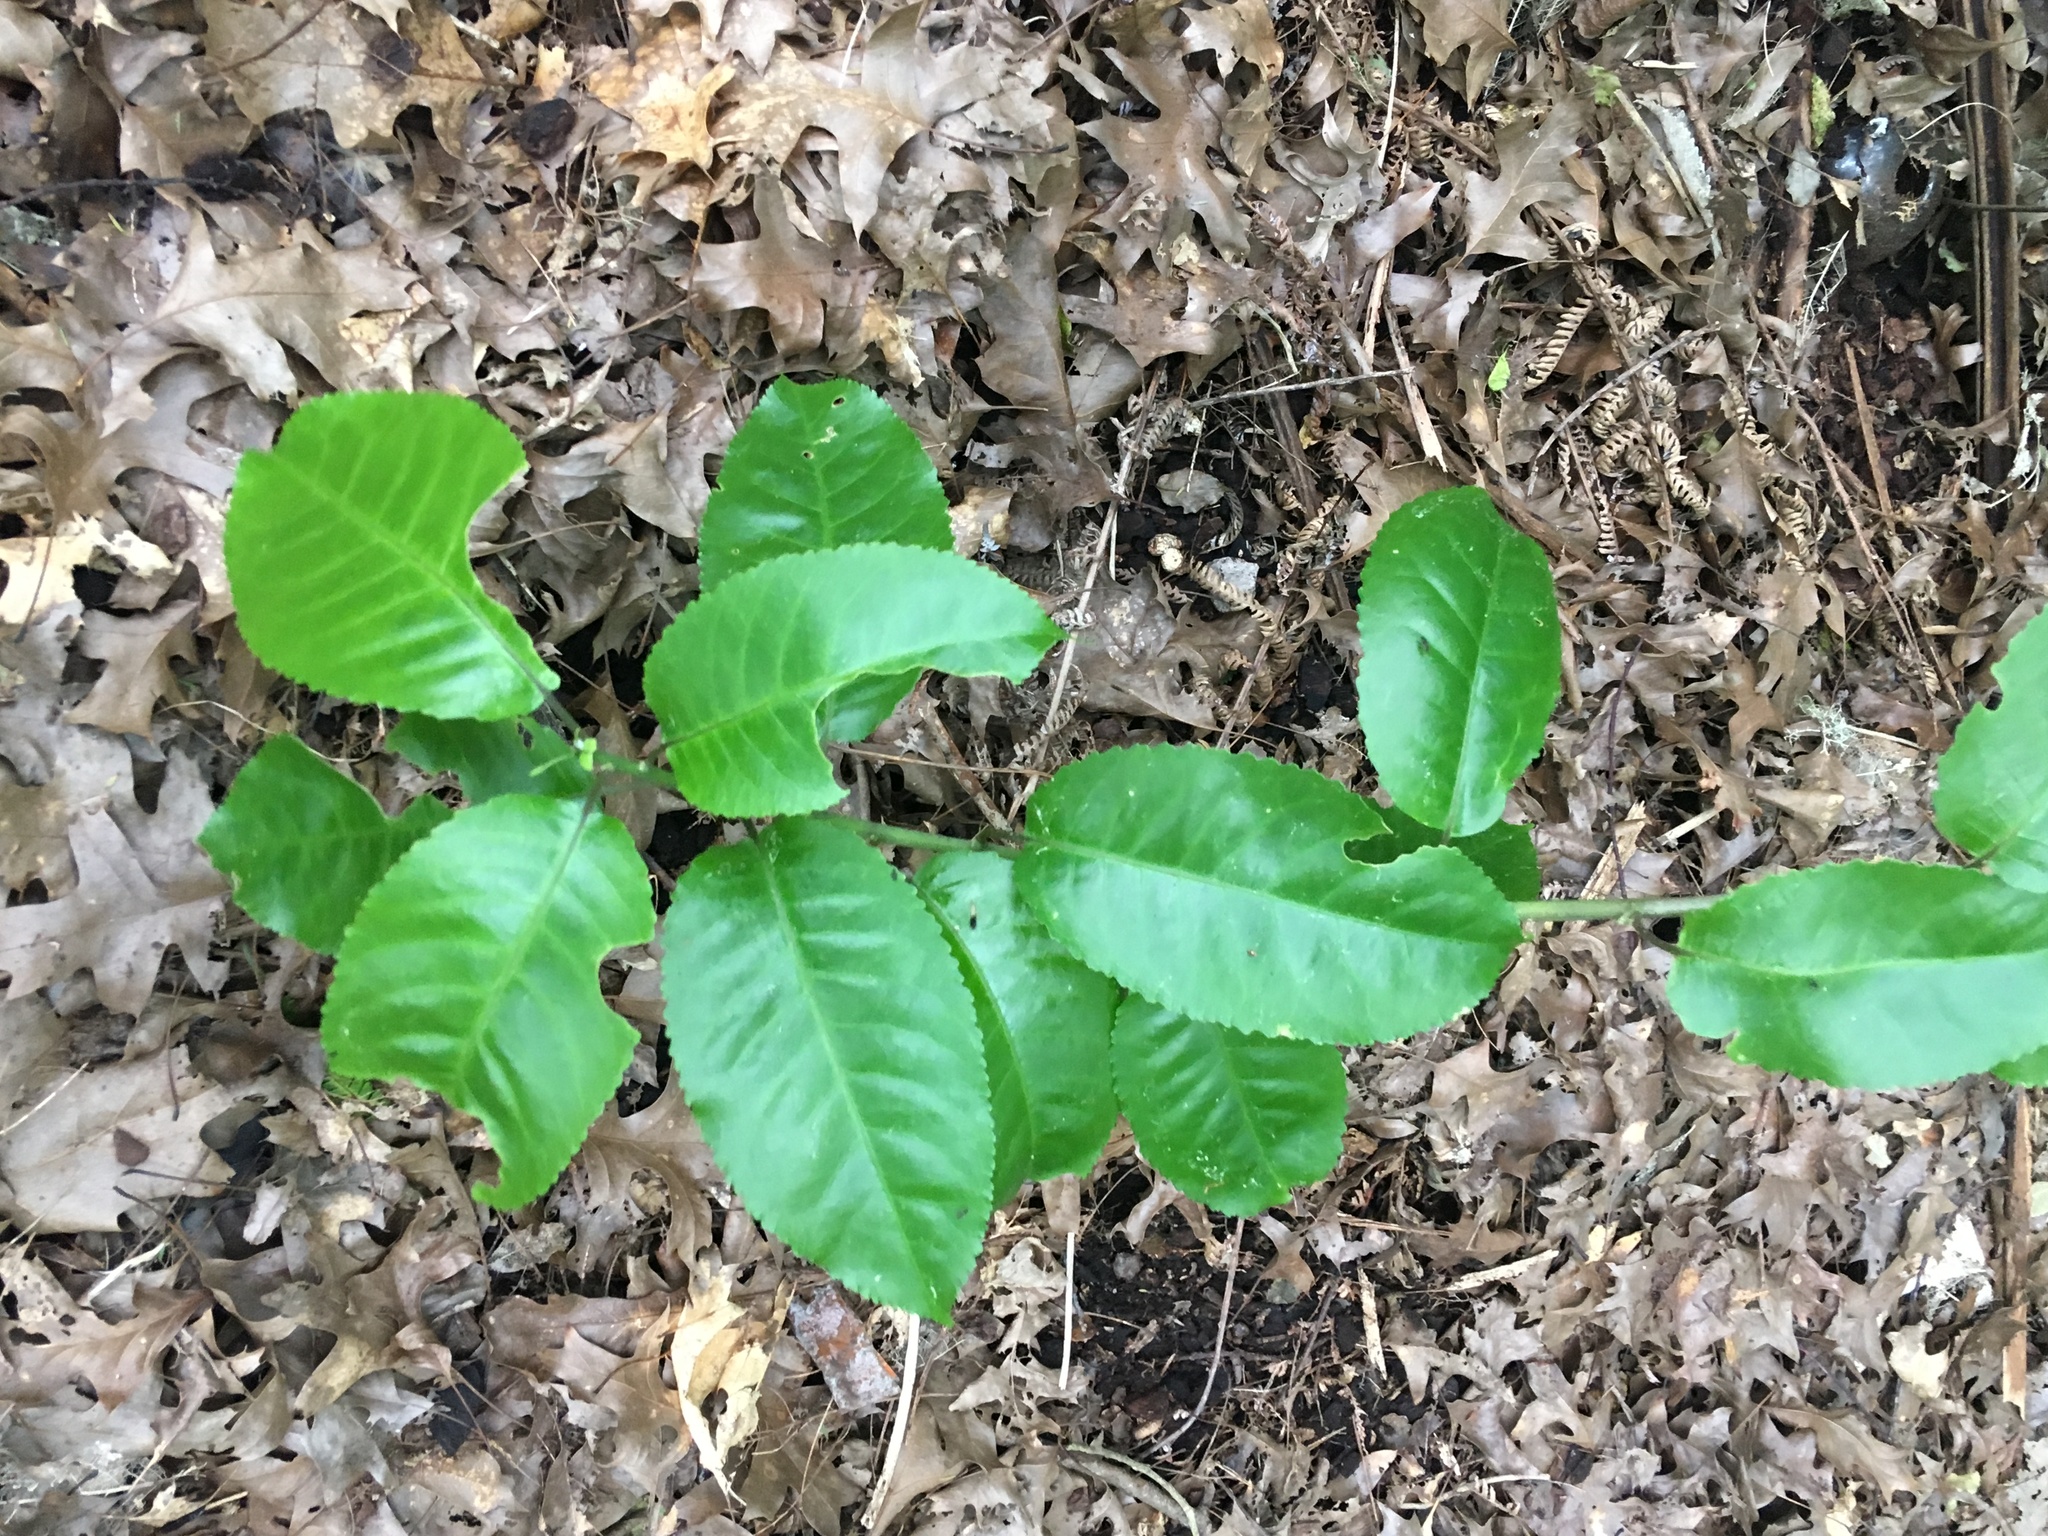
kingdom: Plantae
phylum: Tracheophyta
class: Magnoliopsida
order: Malpighiales
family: Violaceae
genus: Melicytus
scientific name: Melicytus ramiflorus
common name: Mahoe
